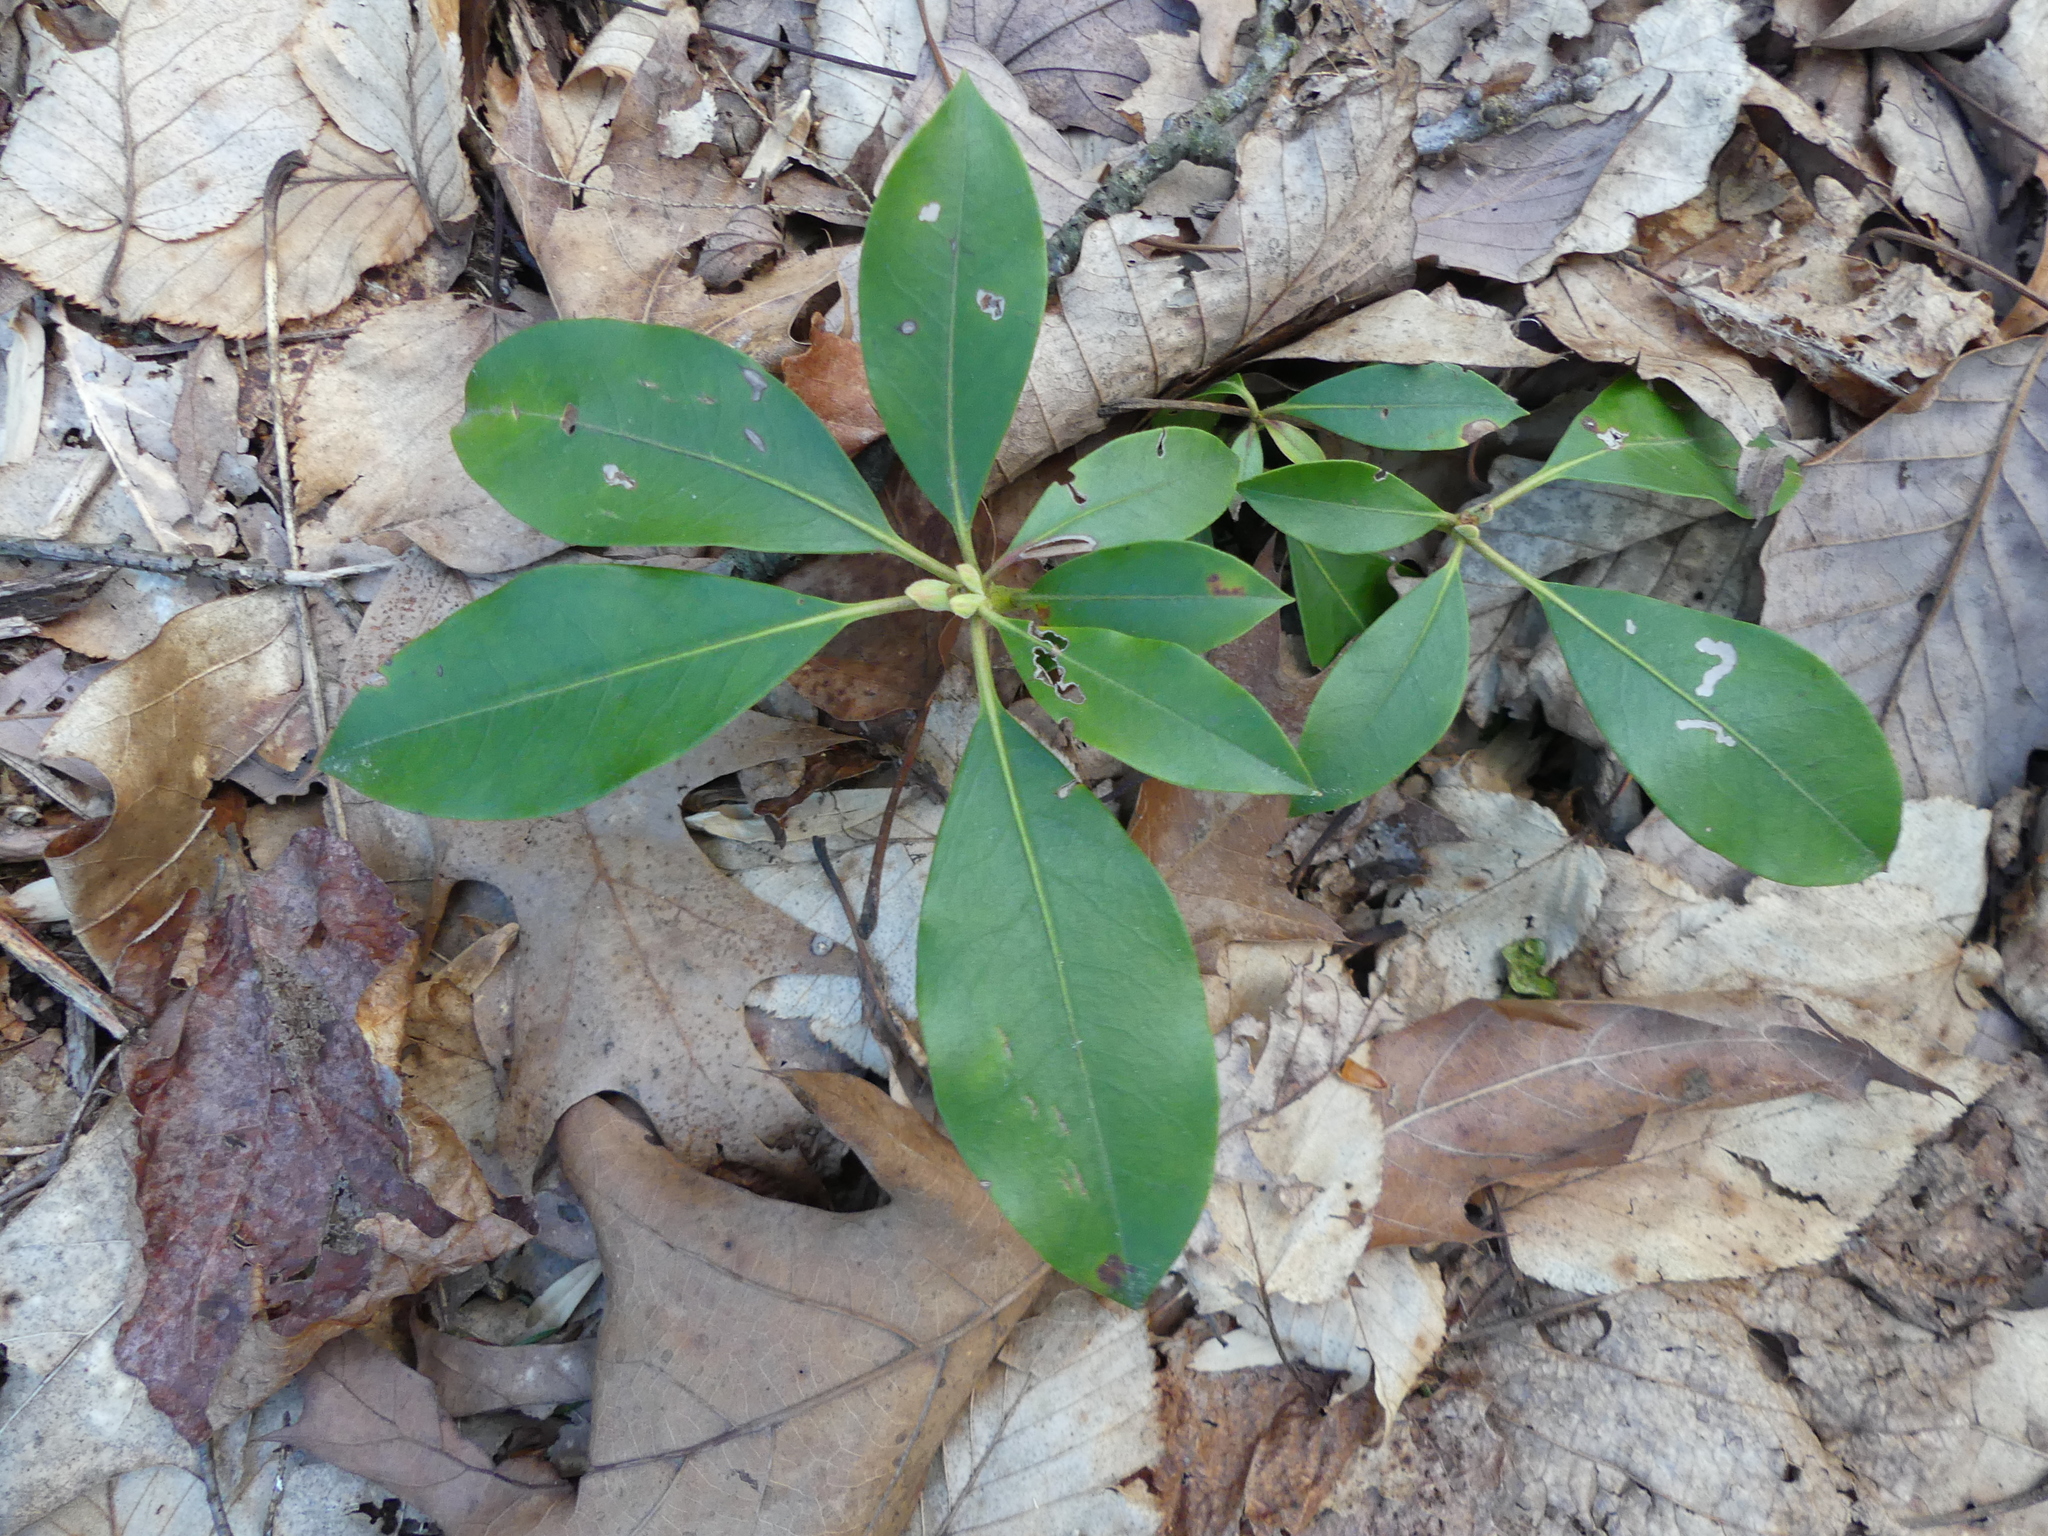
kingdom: Plantae
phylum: Tracheophyta
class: Magnoliopsida
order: Ericales
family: Ericaceae
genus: Kalmia
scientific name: Kalmia latifolia
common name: Mountain-laurel
